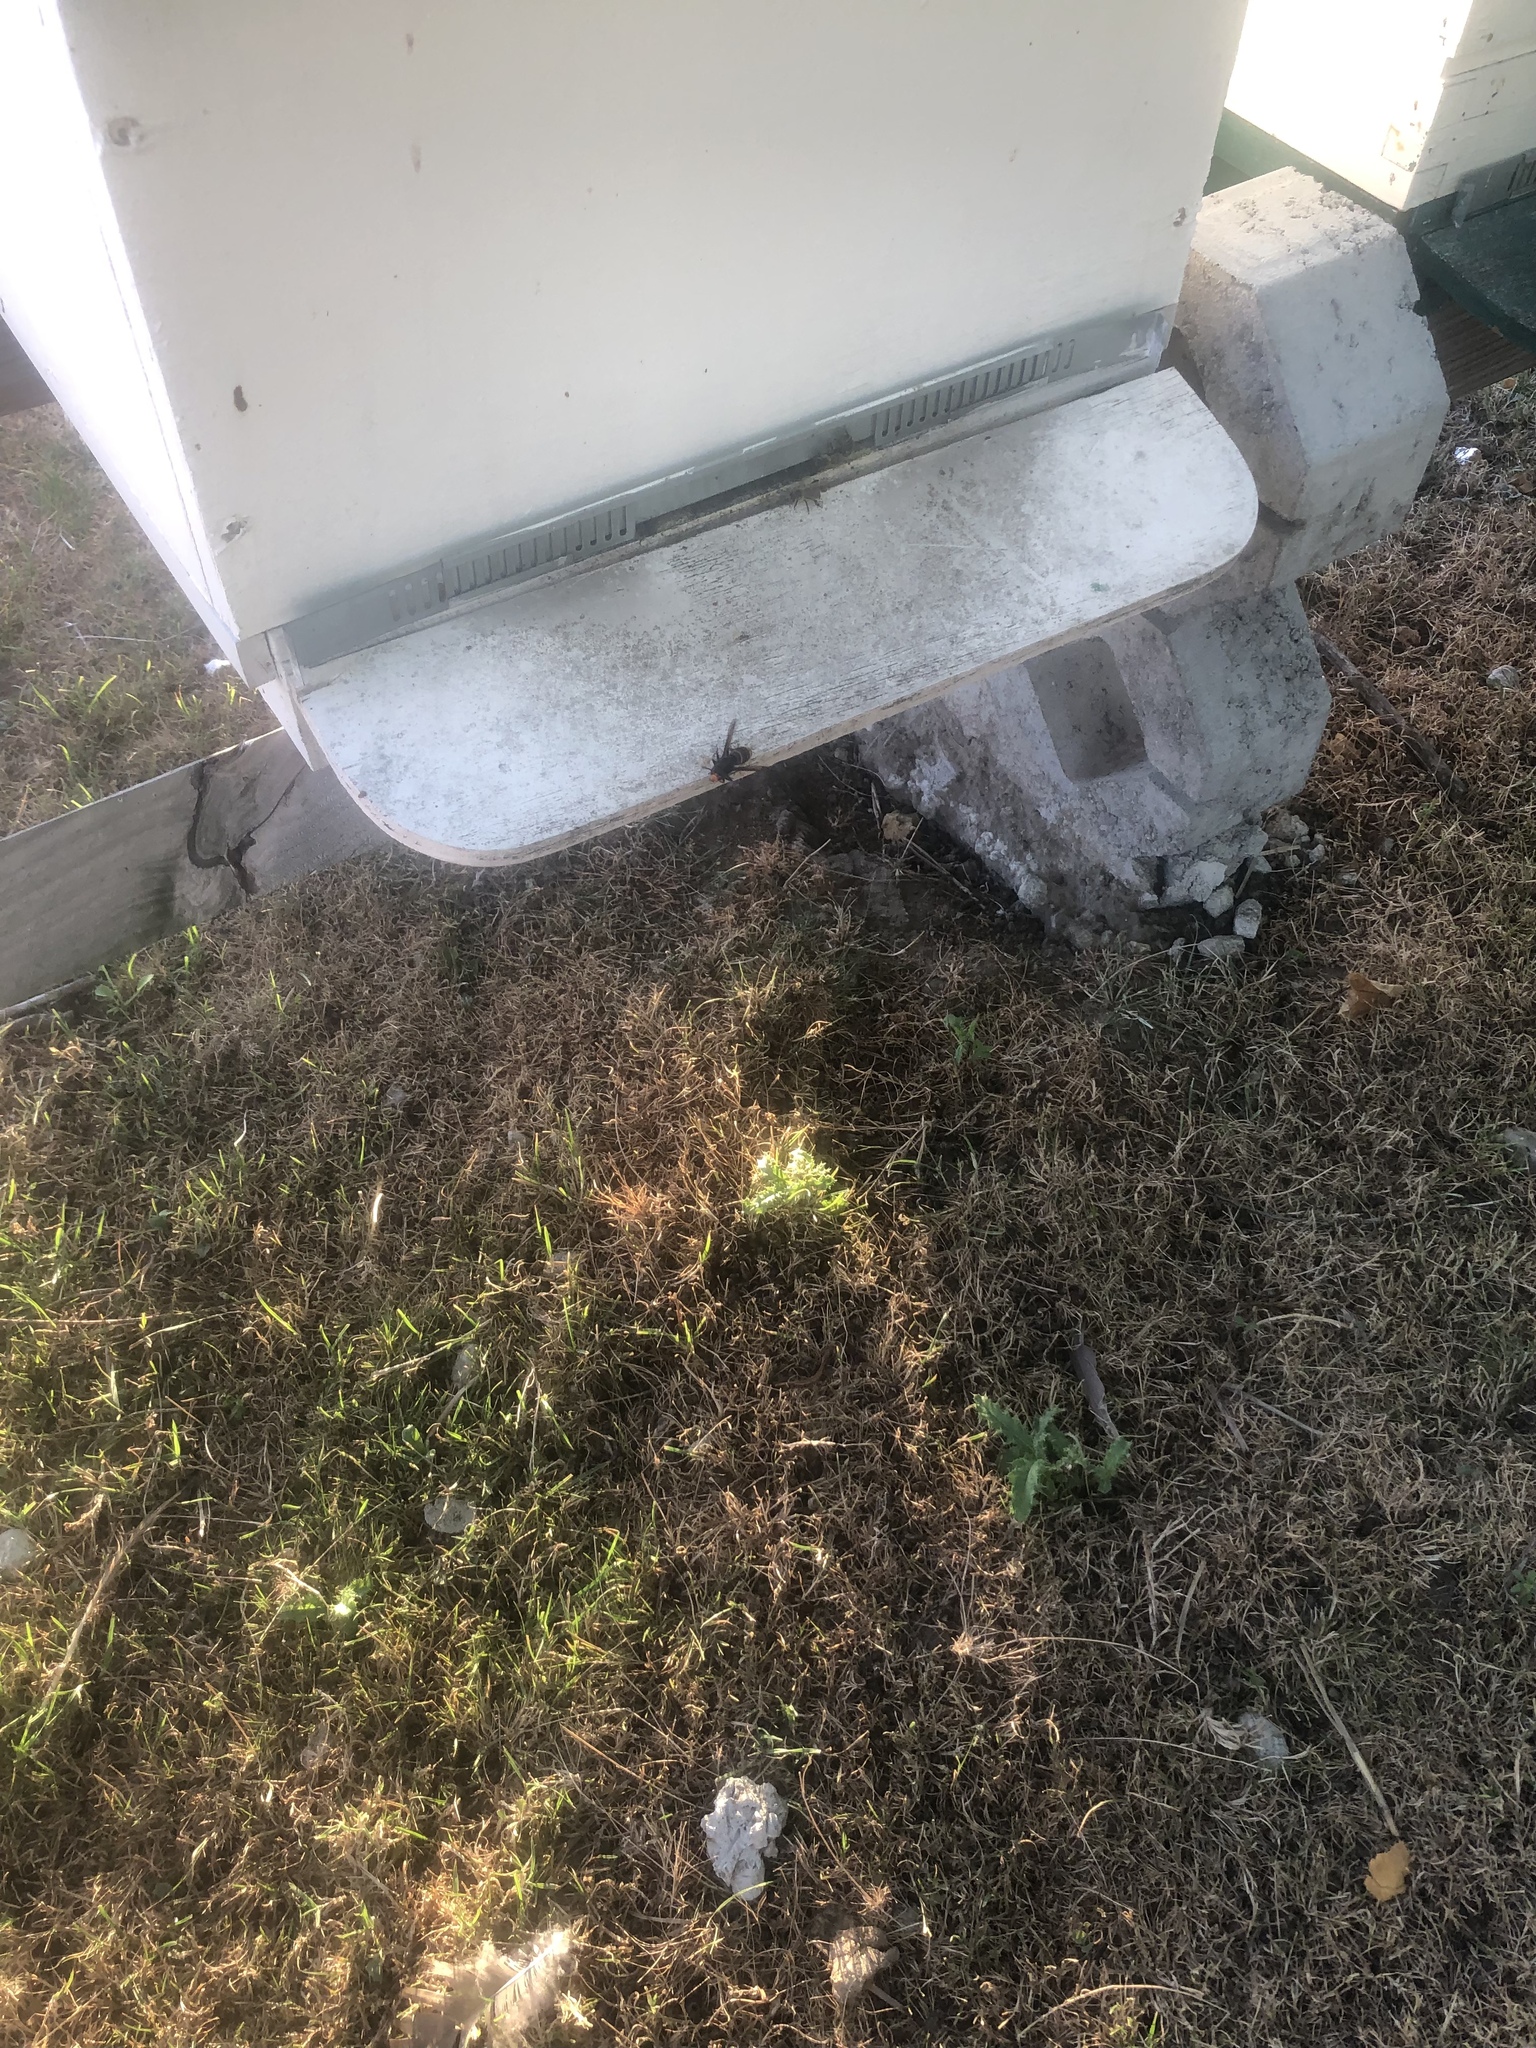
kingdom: Animalia
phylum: Arthropoda
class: Insecta
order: Hymenoptera
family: Vespidae
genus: Vespa
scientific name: Vespa velutina
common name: Asian hornet
